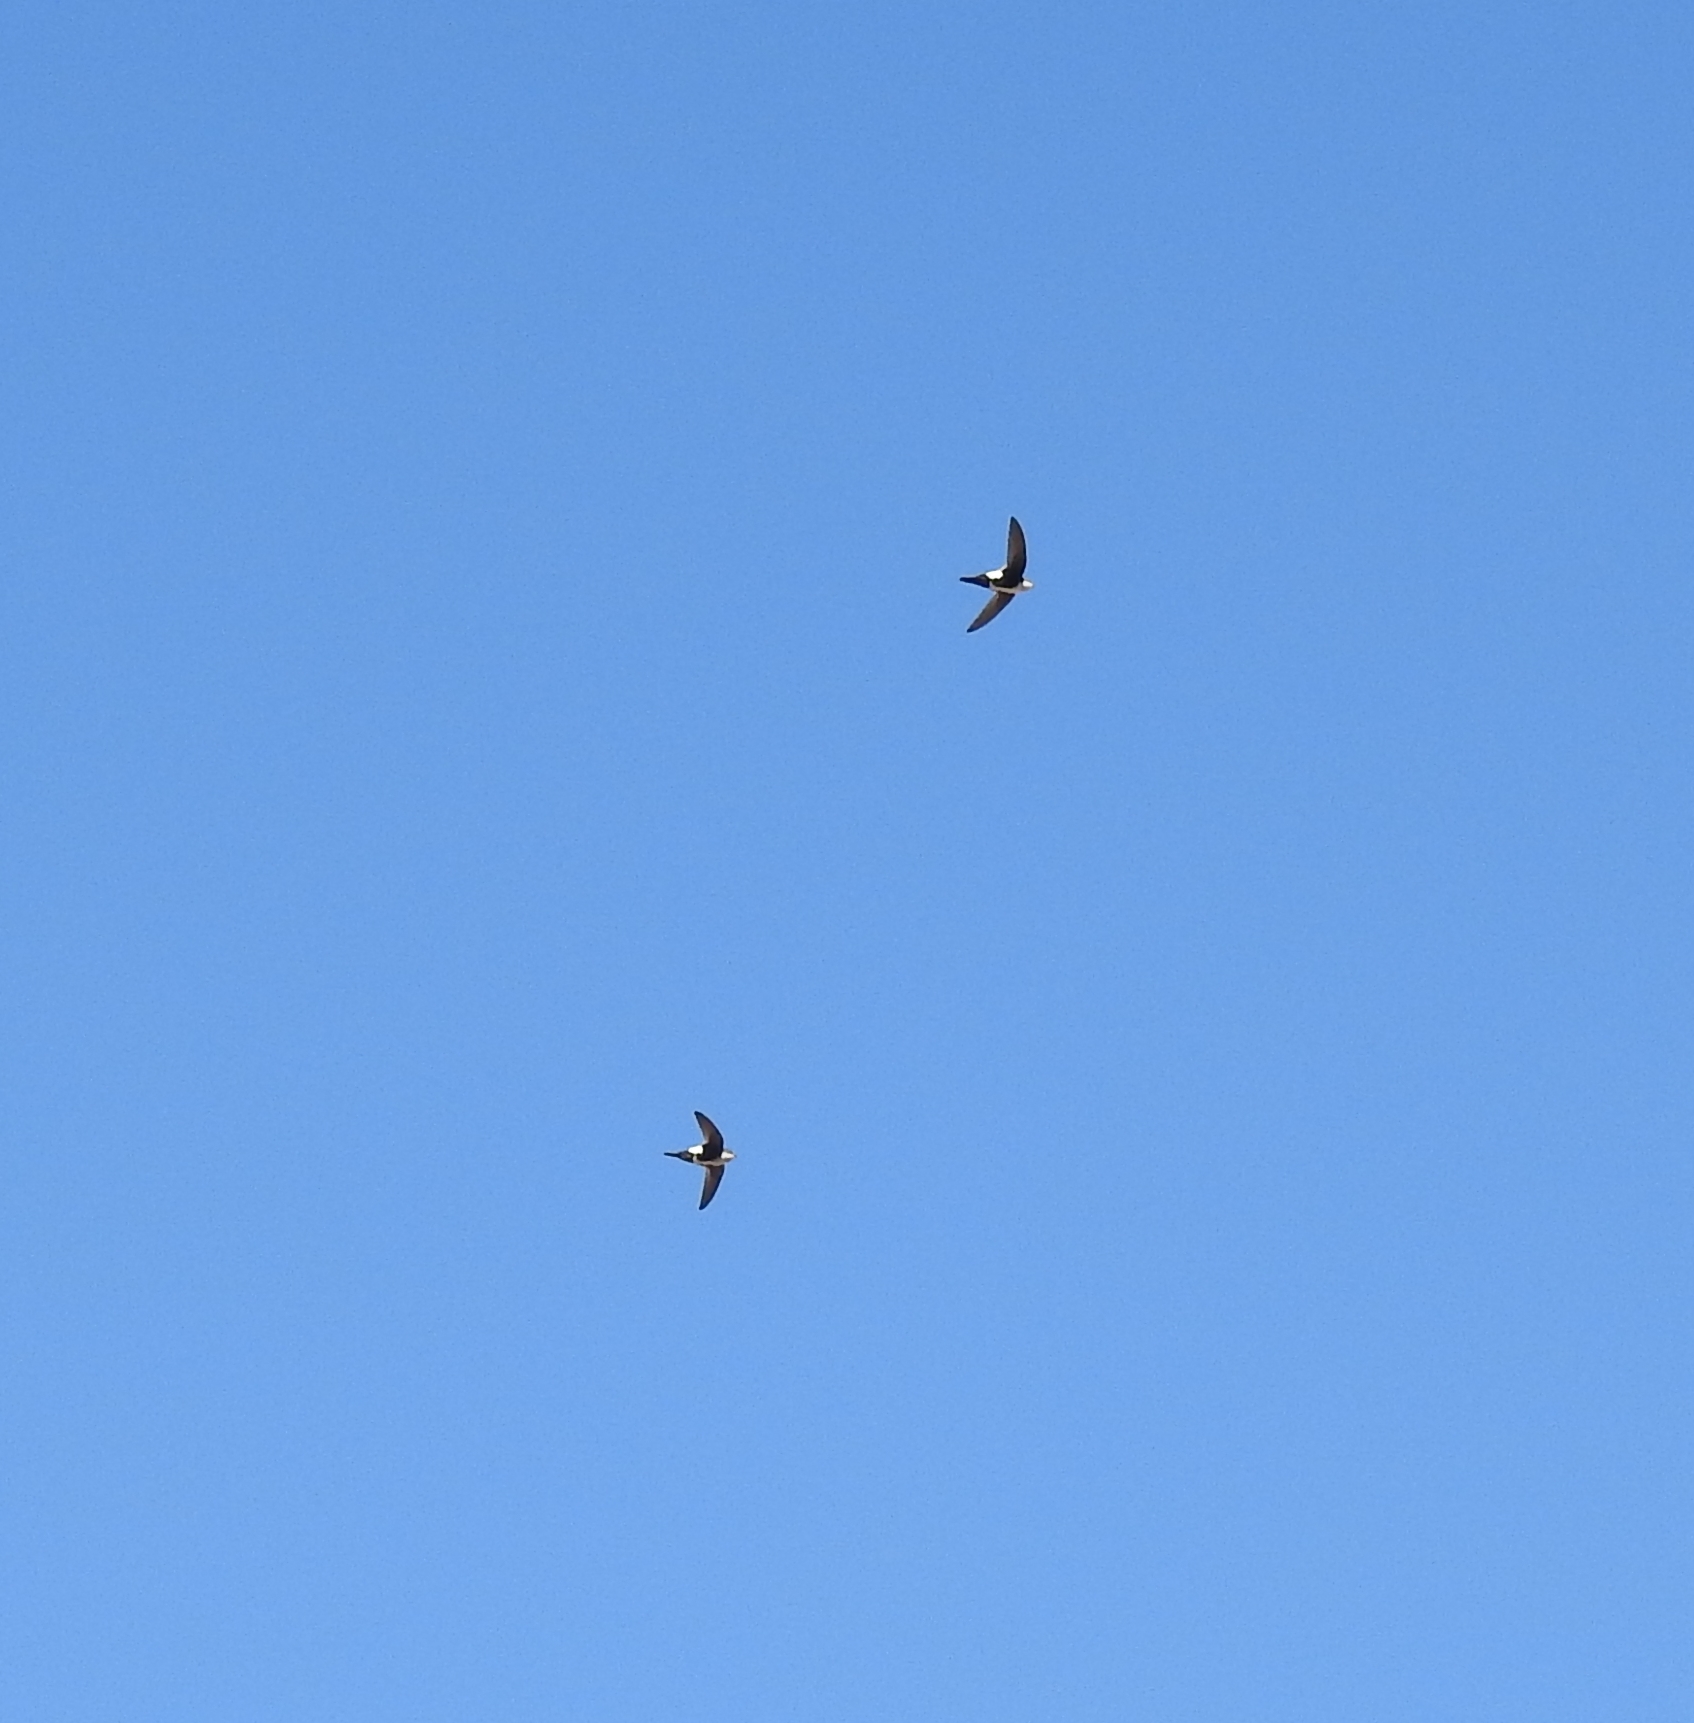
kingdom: Animalia
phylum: Chordata
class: Aves
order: Apodiformes
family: Apodidae
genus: Aeronautes
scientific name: Aeronautes saxatalis
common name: White-throated swift
